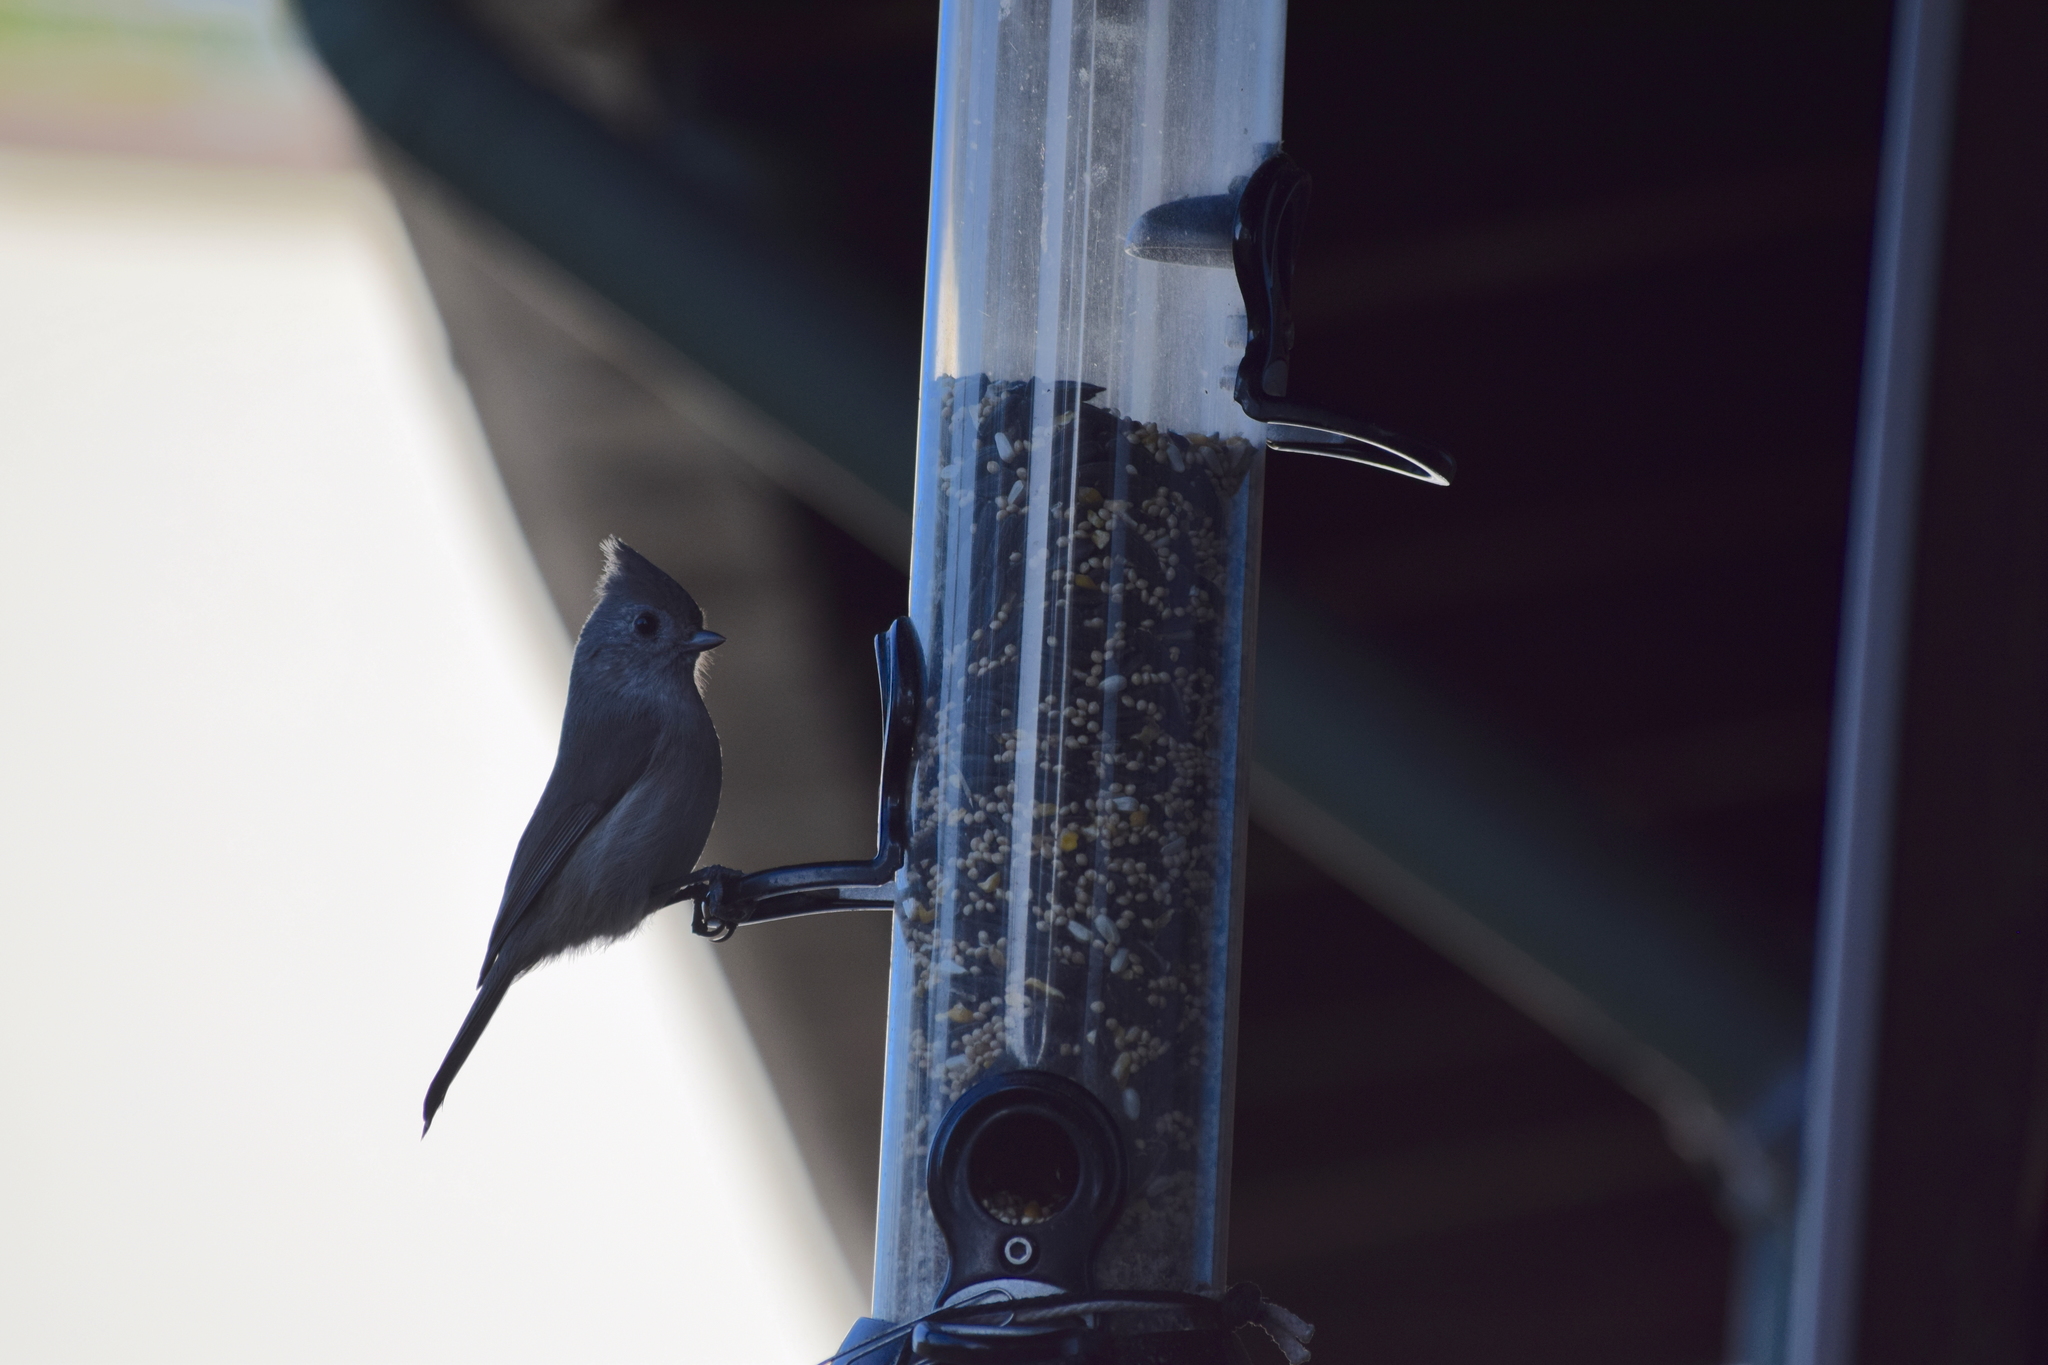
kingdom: Animalia
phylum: Chordata
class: Aves
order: Passeriformes
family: Paridae
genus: Baeolophus
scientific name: Baeolophus inornatus
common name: Oak titmouse
